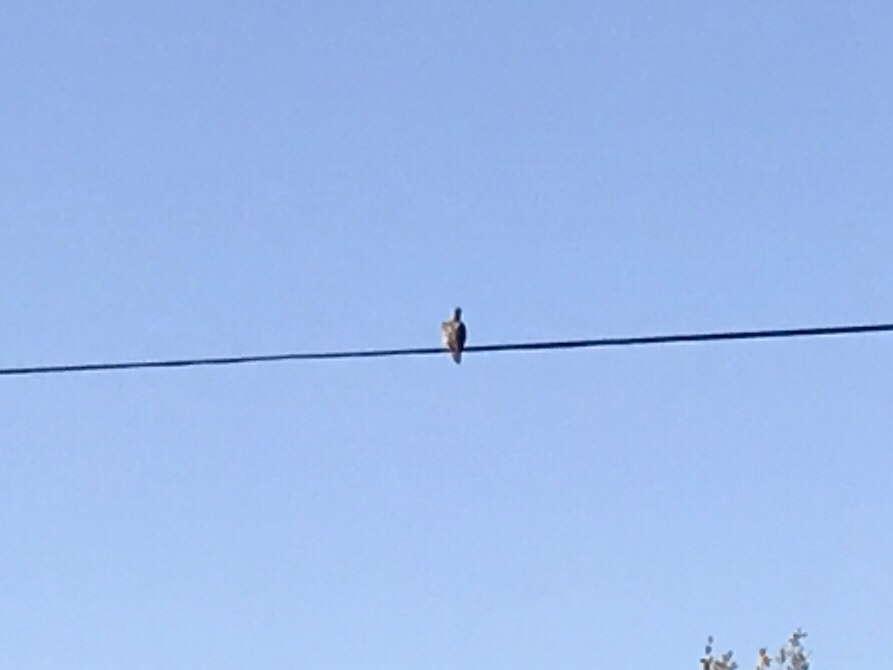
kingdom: Animalia
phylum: Chordata
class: Aves
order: Columbiformes
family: Columbidae
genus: Zenaida
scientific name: Zenaida macroura
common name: Mourning dove
